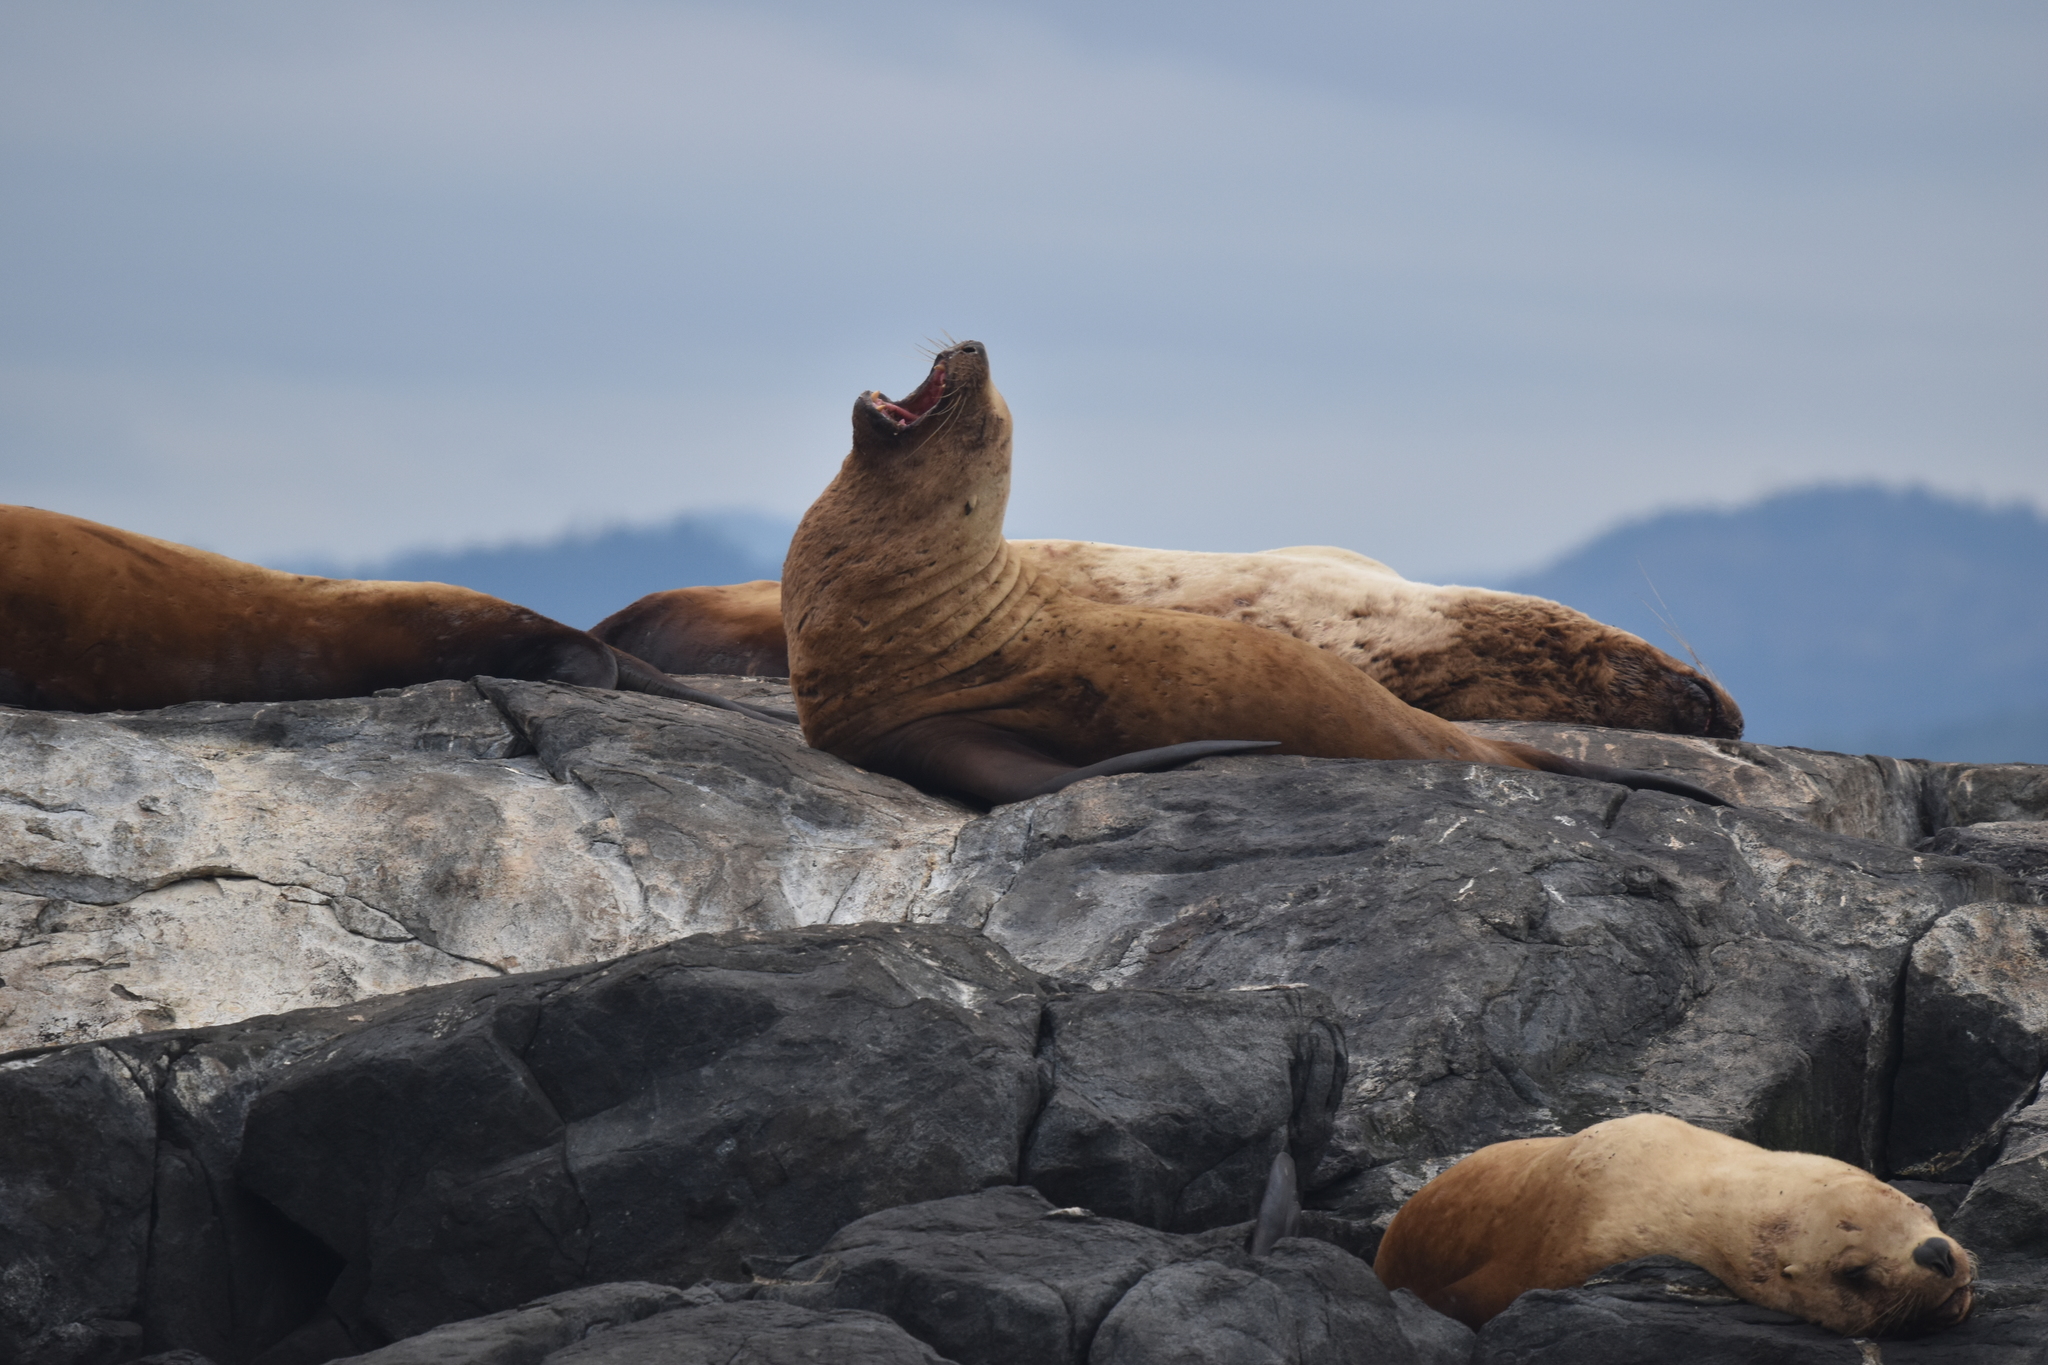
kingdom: Animalia
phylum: Chordata
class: Mammalia
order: Carnivora
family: Otariidae
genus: Eumetopias
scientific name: Eumetopias jubatus
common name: Steller sea lion
